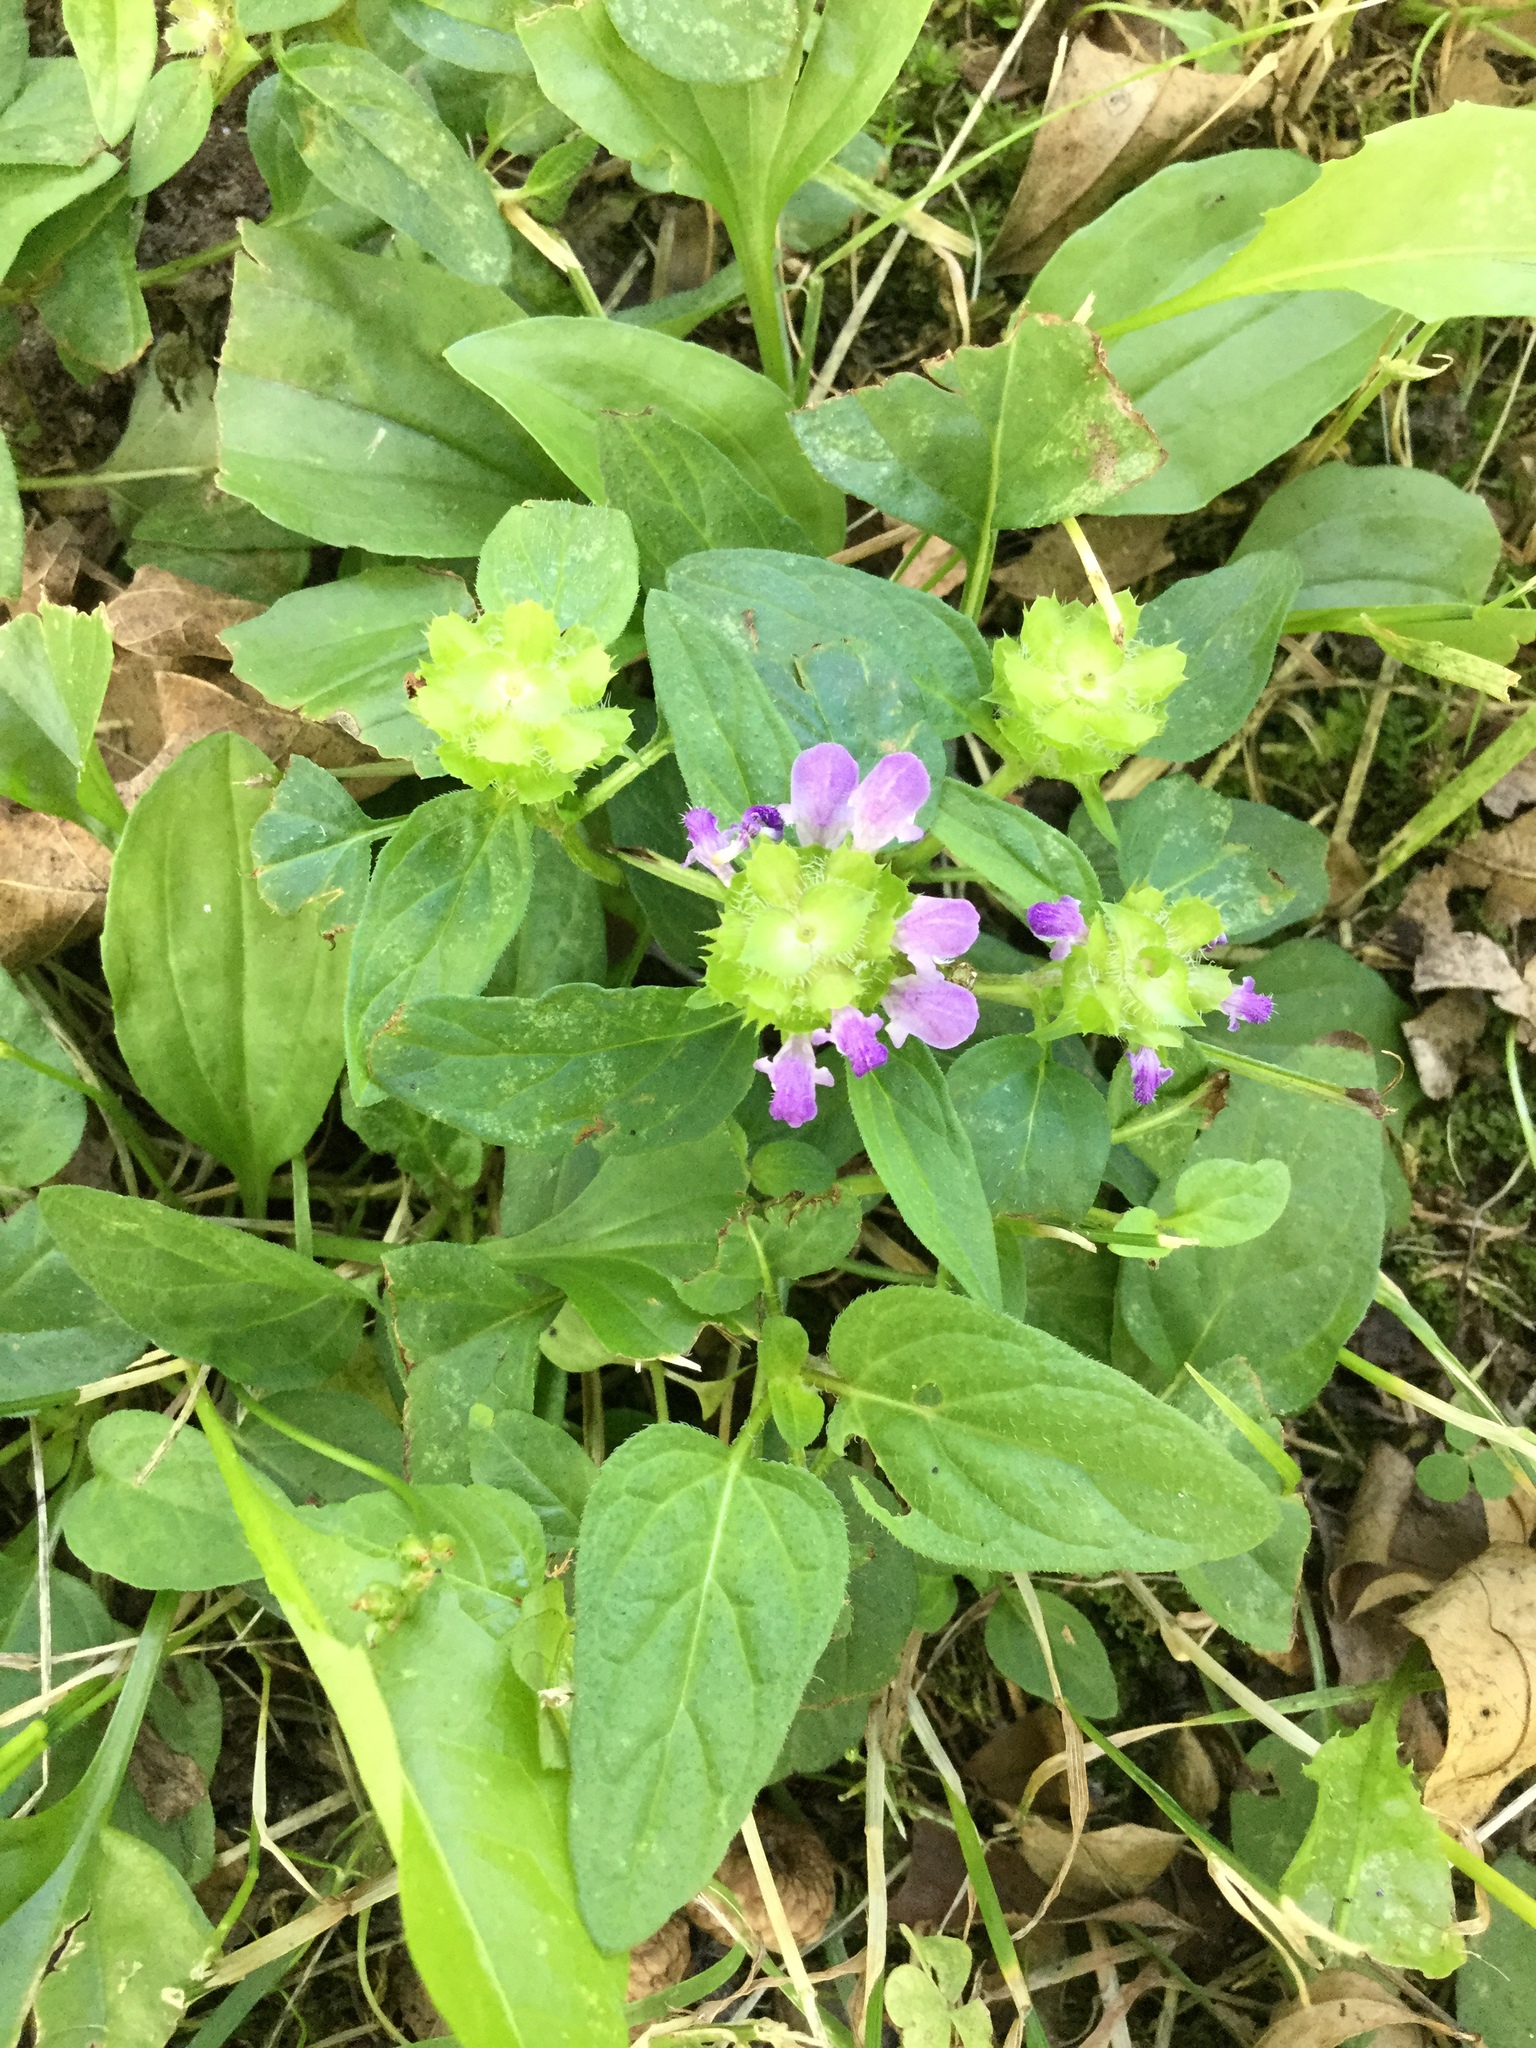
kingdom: Plantae
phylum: Tracheophyta
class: Magnoliopsida
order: Lamiales
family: Lamiaceae
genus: Prunella
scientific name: Prunella vulgaris
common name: Heal-all
